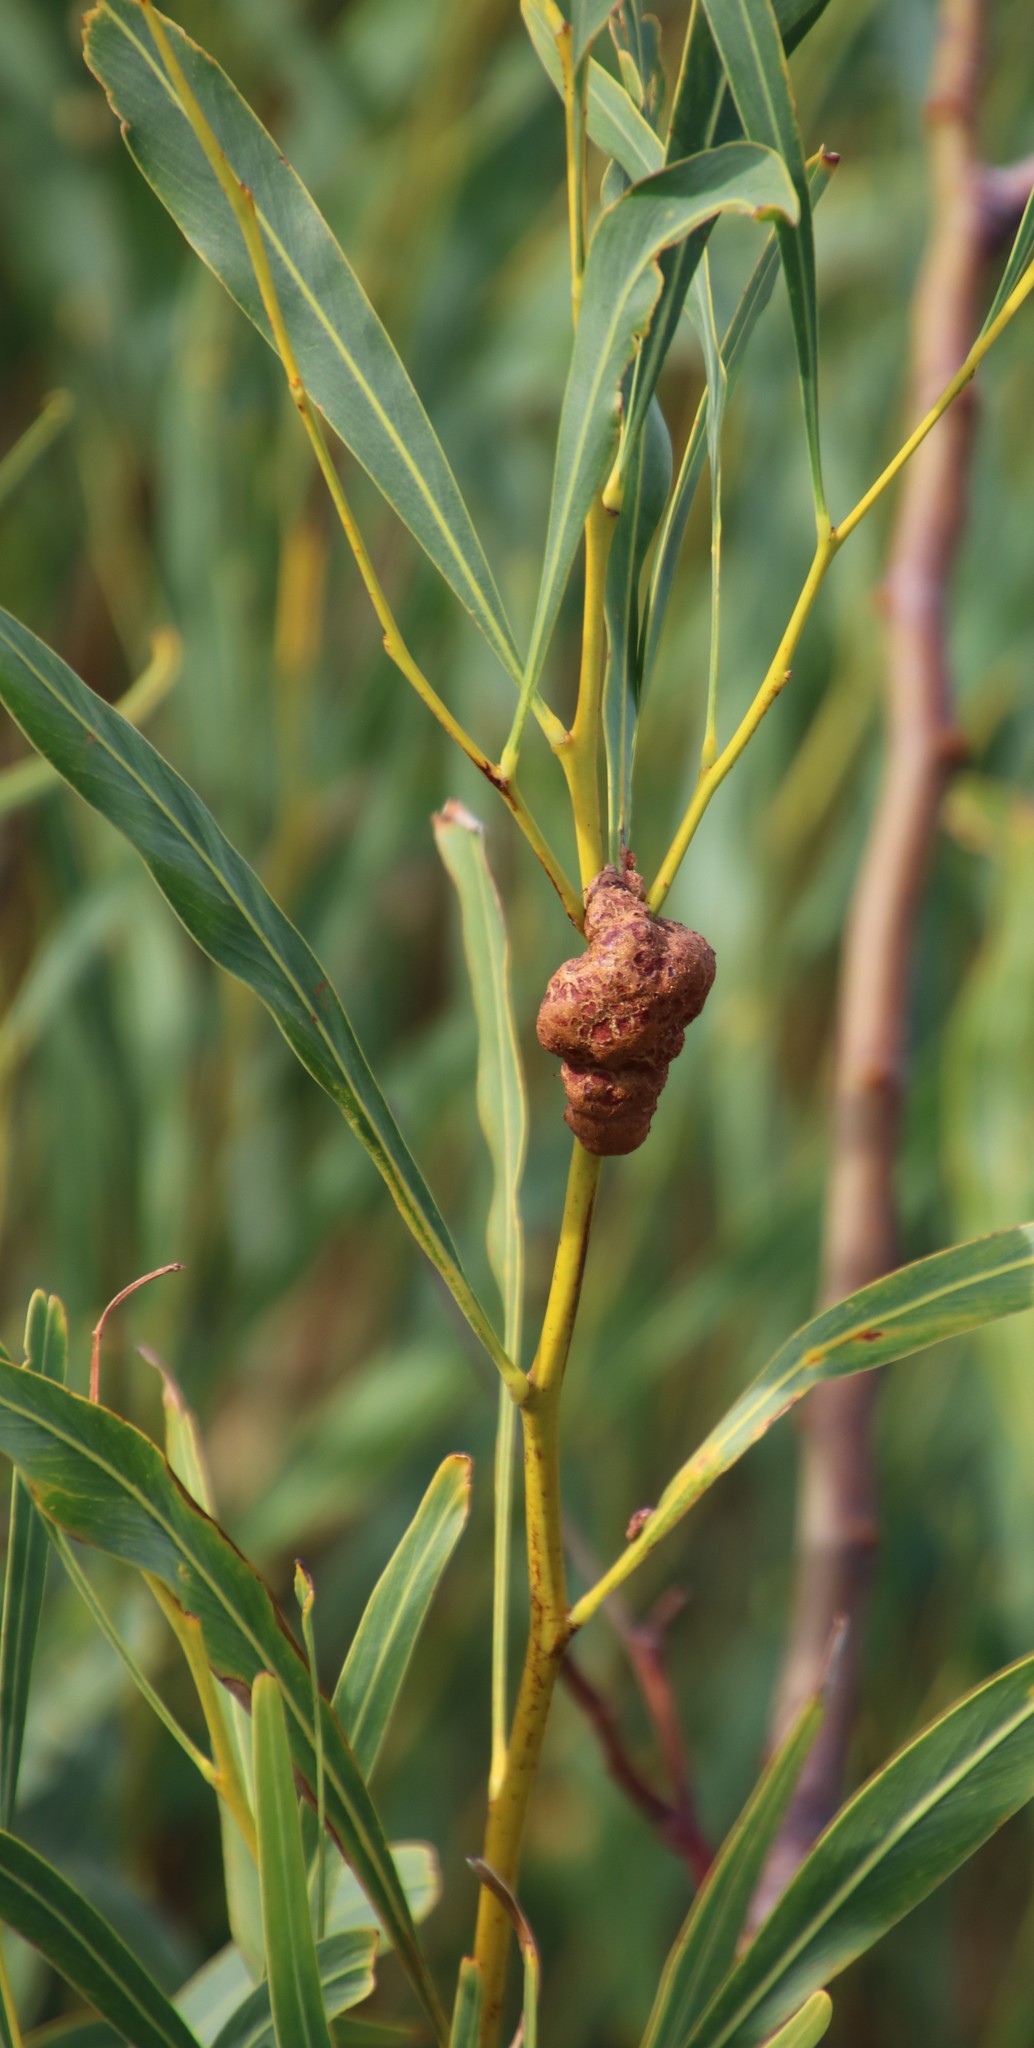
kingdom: Fungi
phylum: Basidiomycota
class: Pucciniomycetes
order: Pucciniales
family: Uromycladiaceae
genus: Uromycladium
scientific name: Uromycladium morrisii
